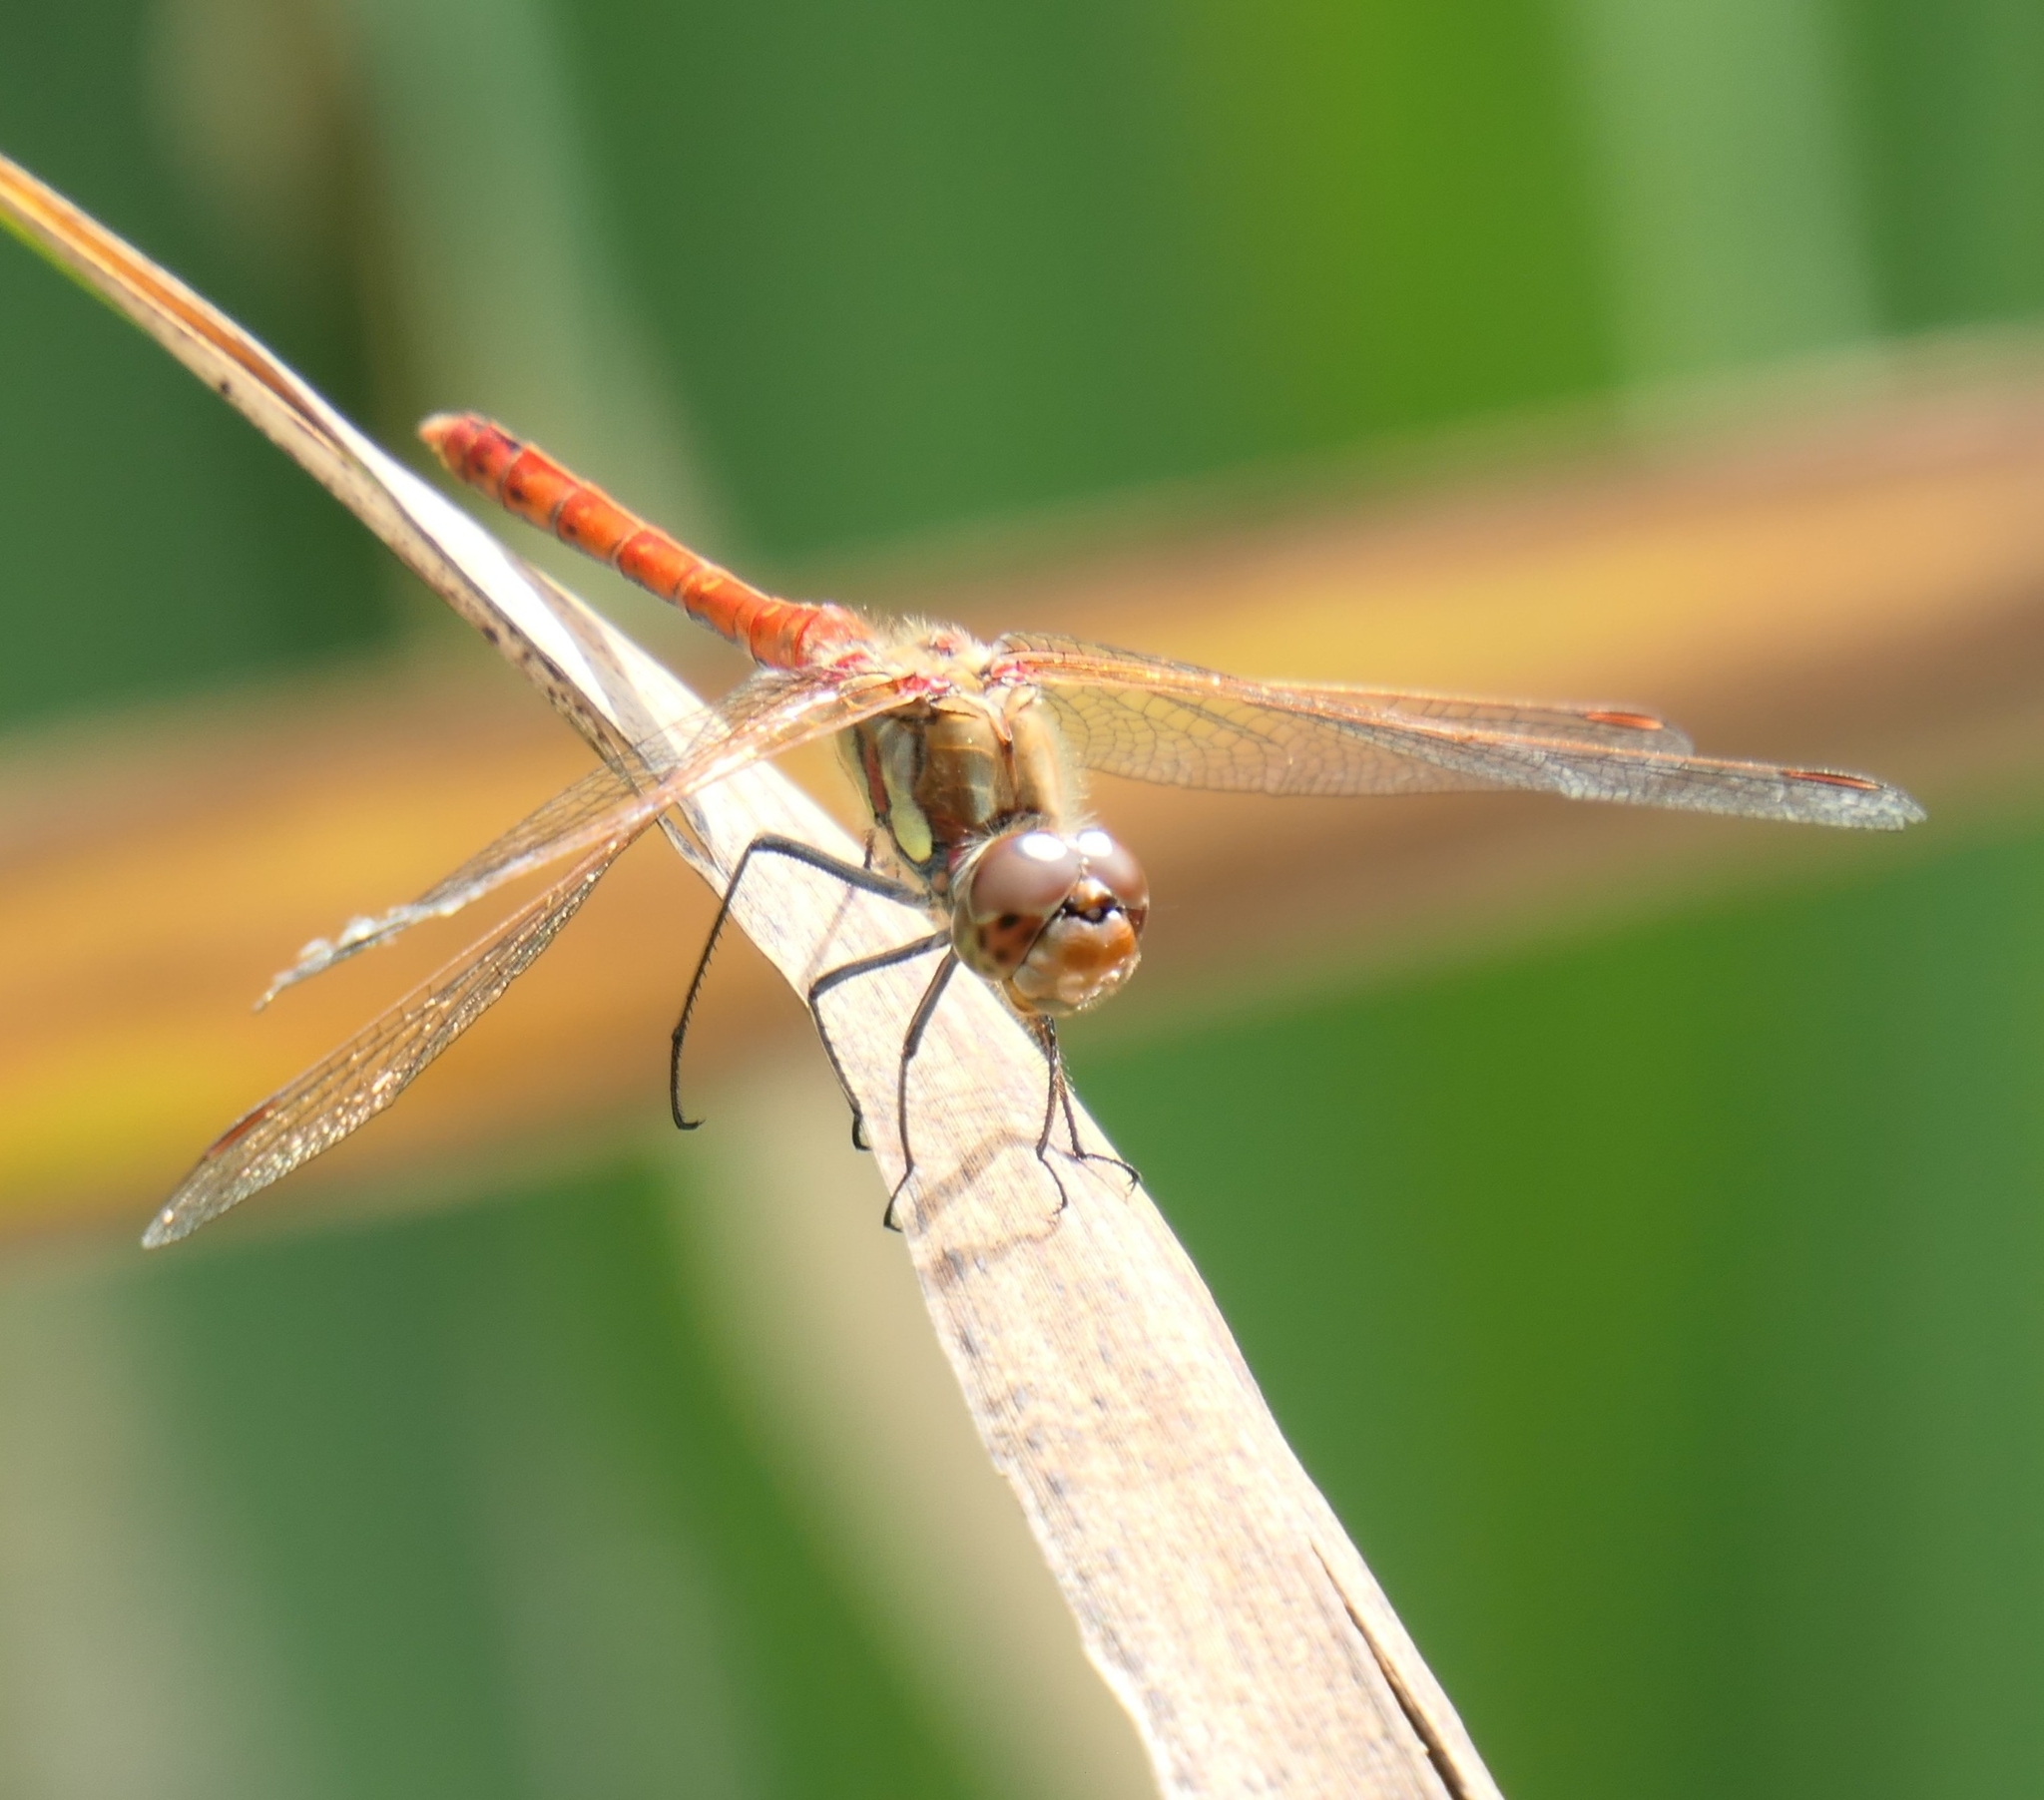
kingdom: Animalia
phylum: Arthropoda
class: Insecta
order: Odonata
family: Libellulidae
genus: Sympetrum
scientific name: Sympetrum striolatum
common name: Common darter
